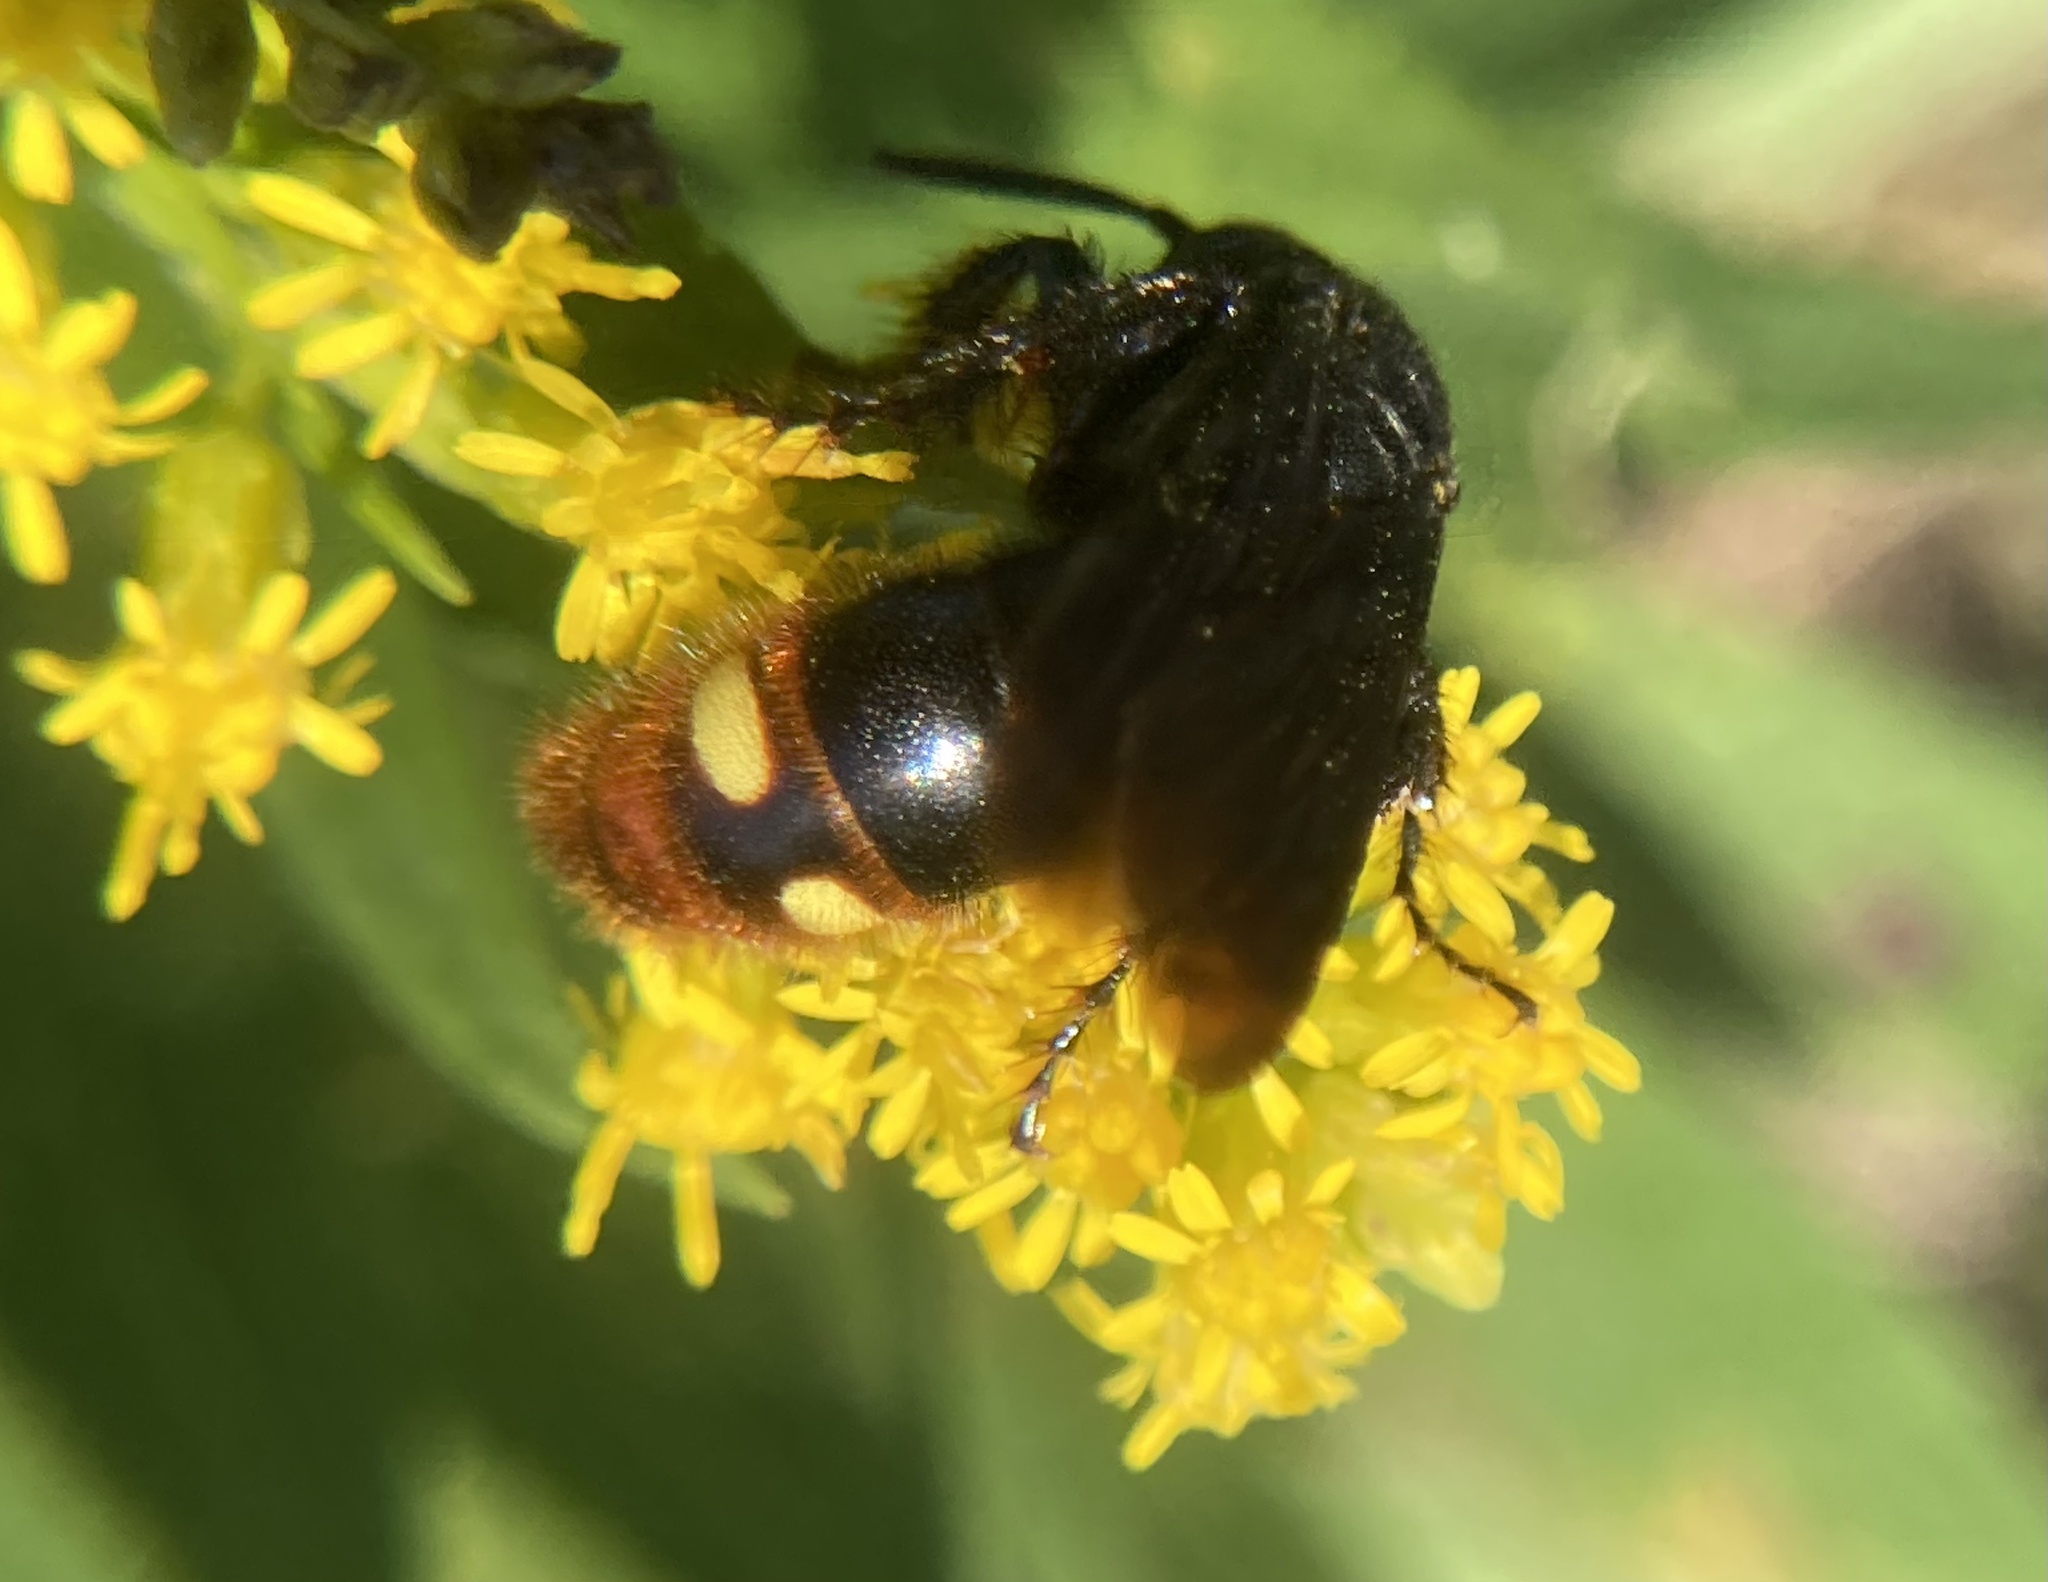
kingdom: Animalia
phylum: Arthropoda
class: Insecta
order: Hymenoptera
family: Scoliidae
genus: Scolia
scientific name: Scolia dubia
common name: Blue-winged scoliid wasp
